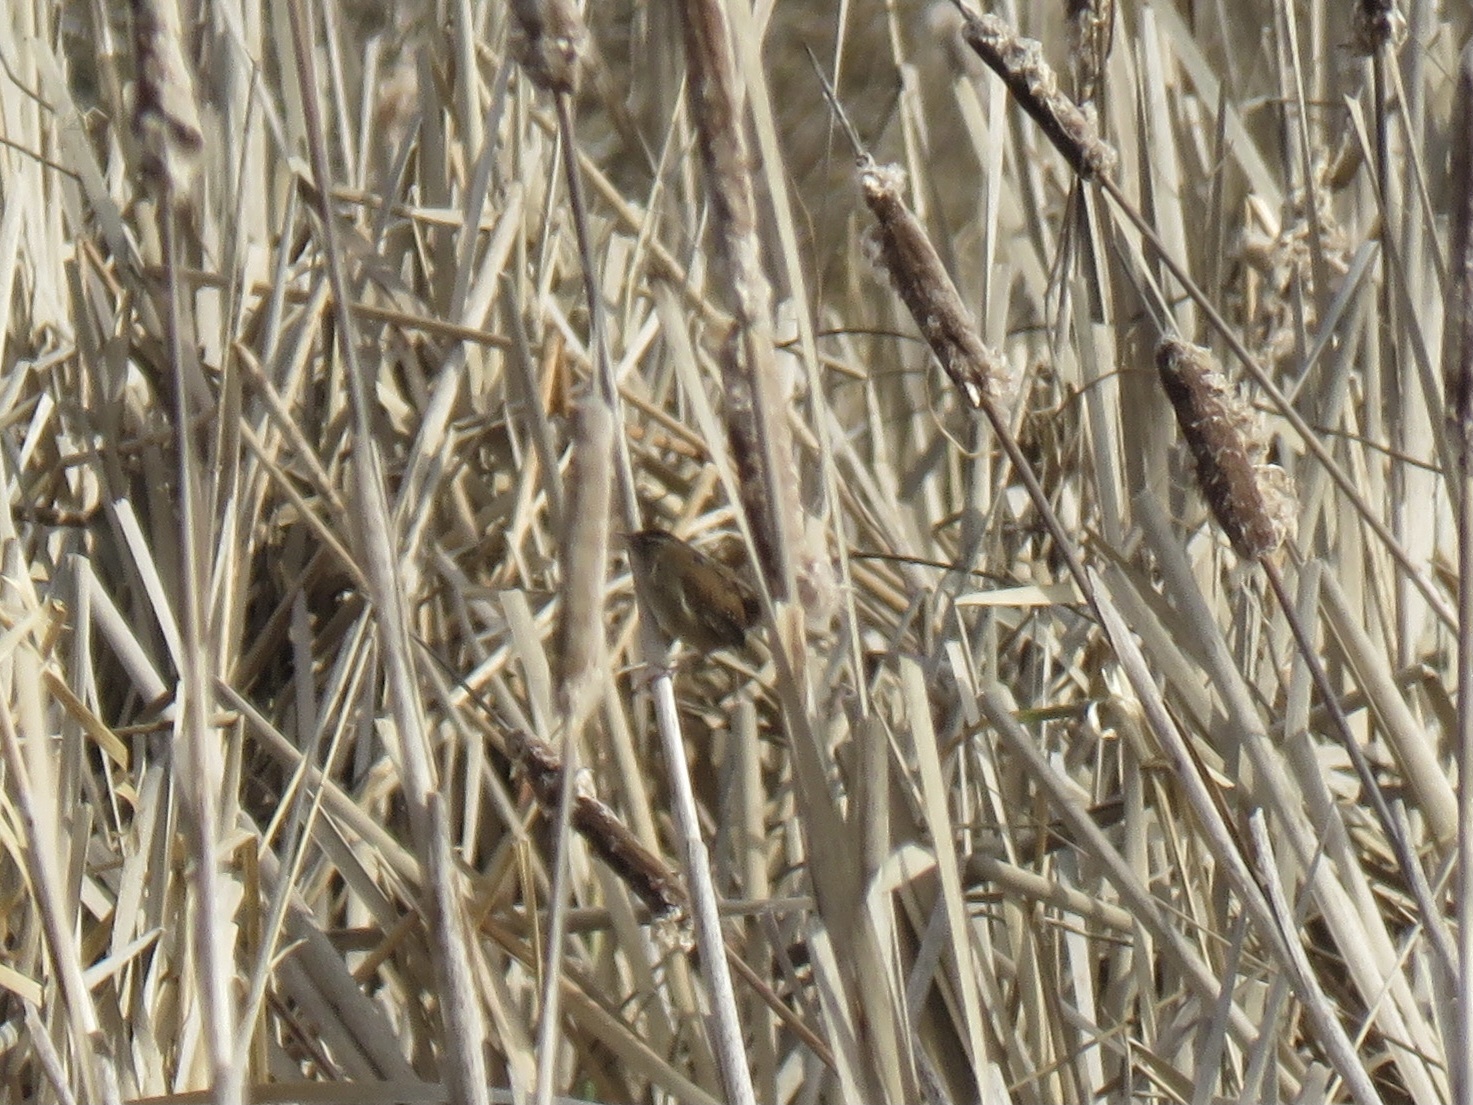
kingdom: Animalia
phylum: Chordata
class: Aves
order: Passeriformes
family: Troglodytidae
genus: Cistothorus
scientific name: Cistothorus palustris
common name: Marsh wren
